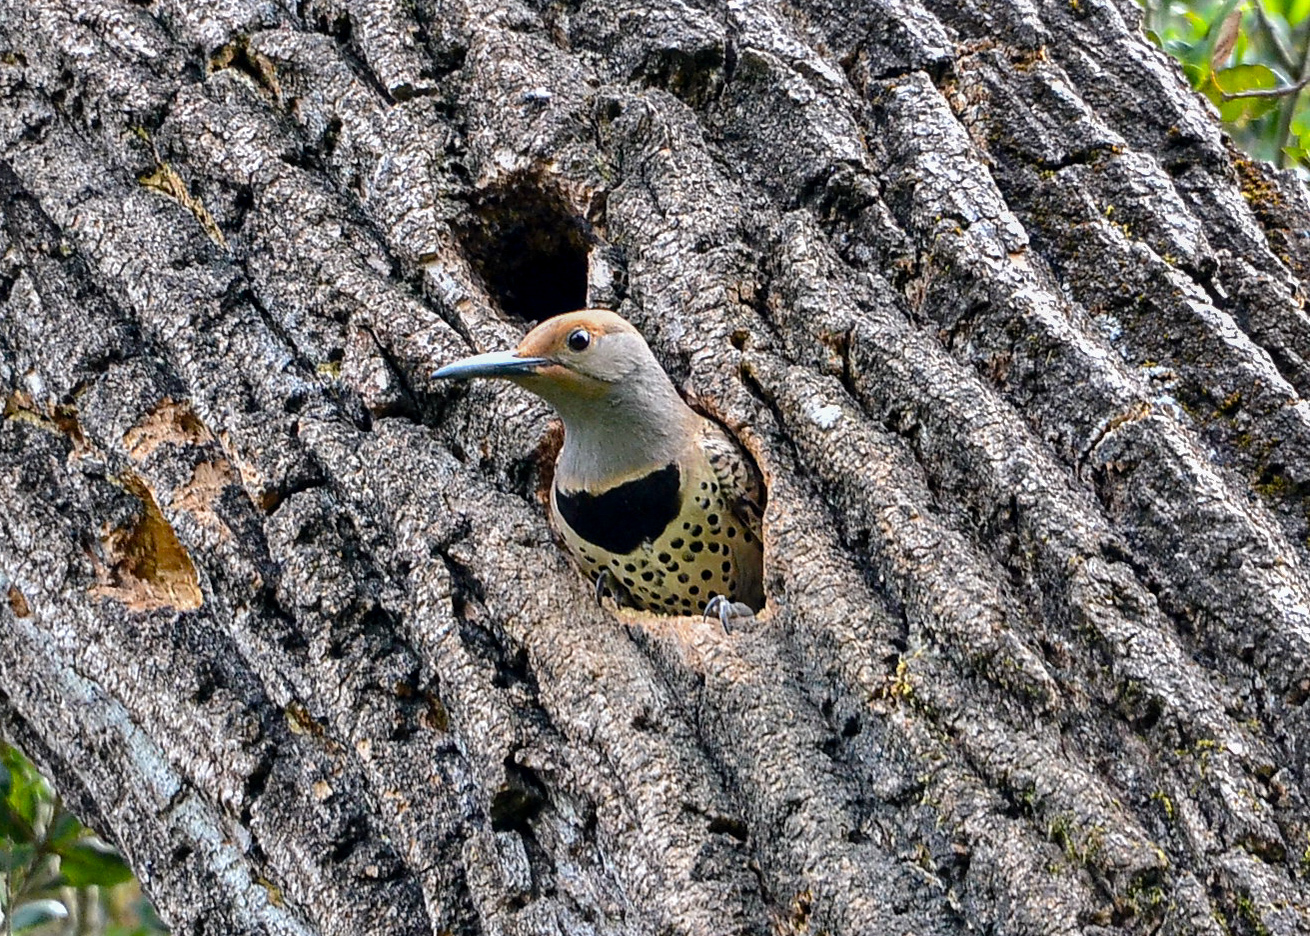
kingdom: Animalia
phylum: Chordata
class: Aves
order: Piciformes
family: Picidae
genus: Colaptes
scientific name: Colaptes auratus
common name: Northern flicker
